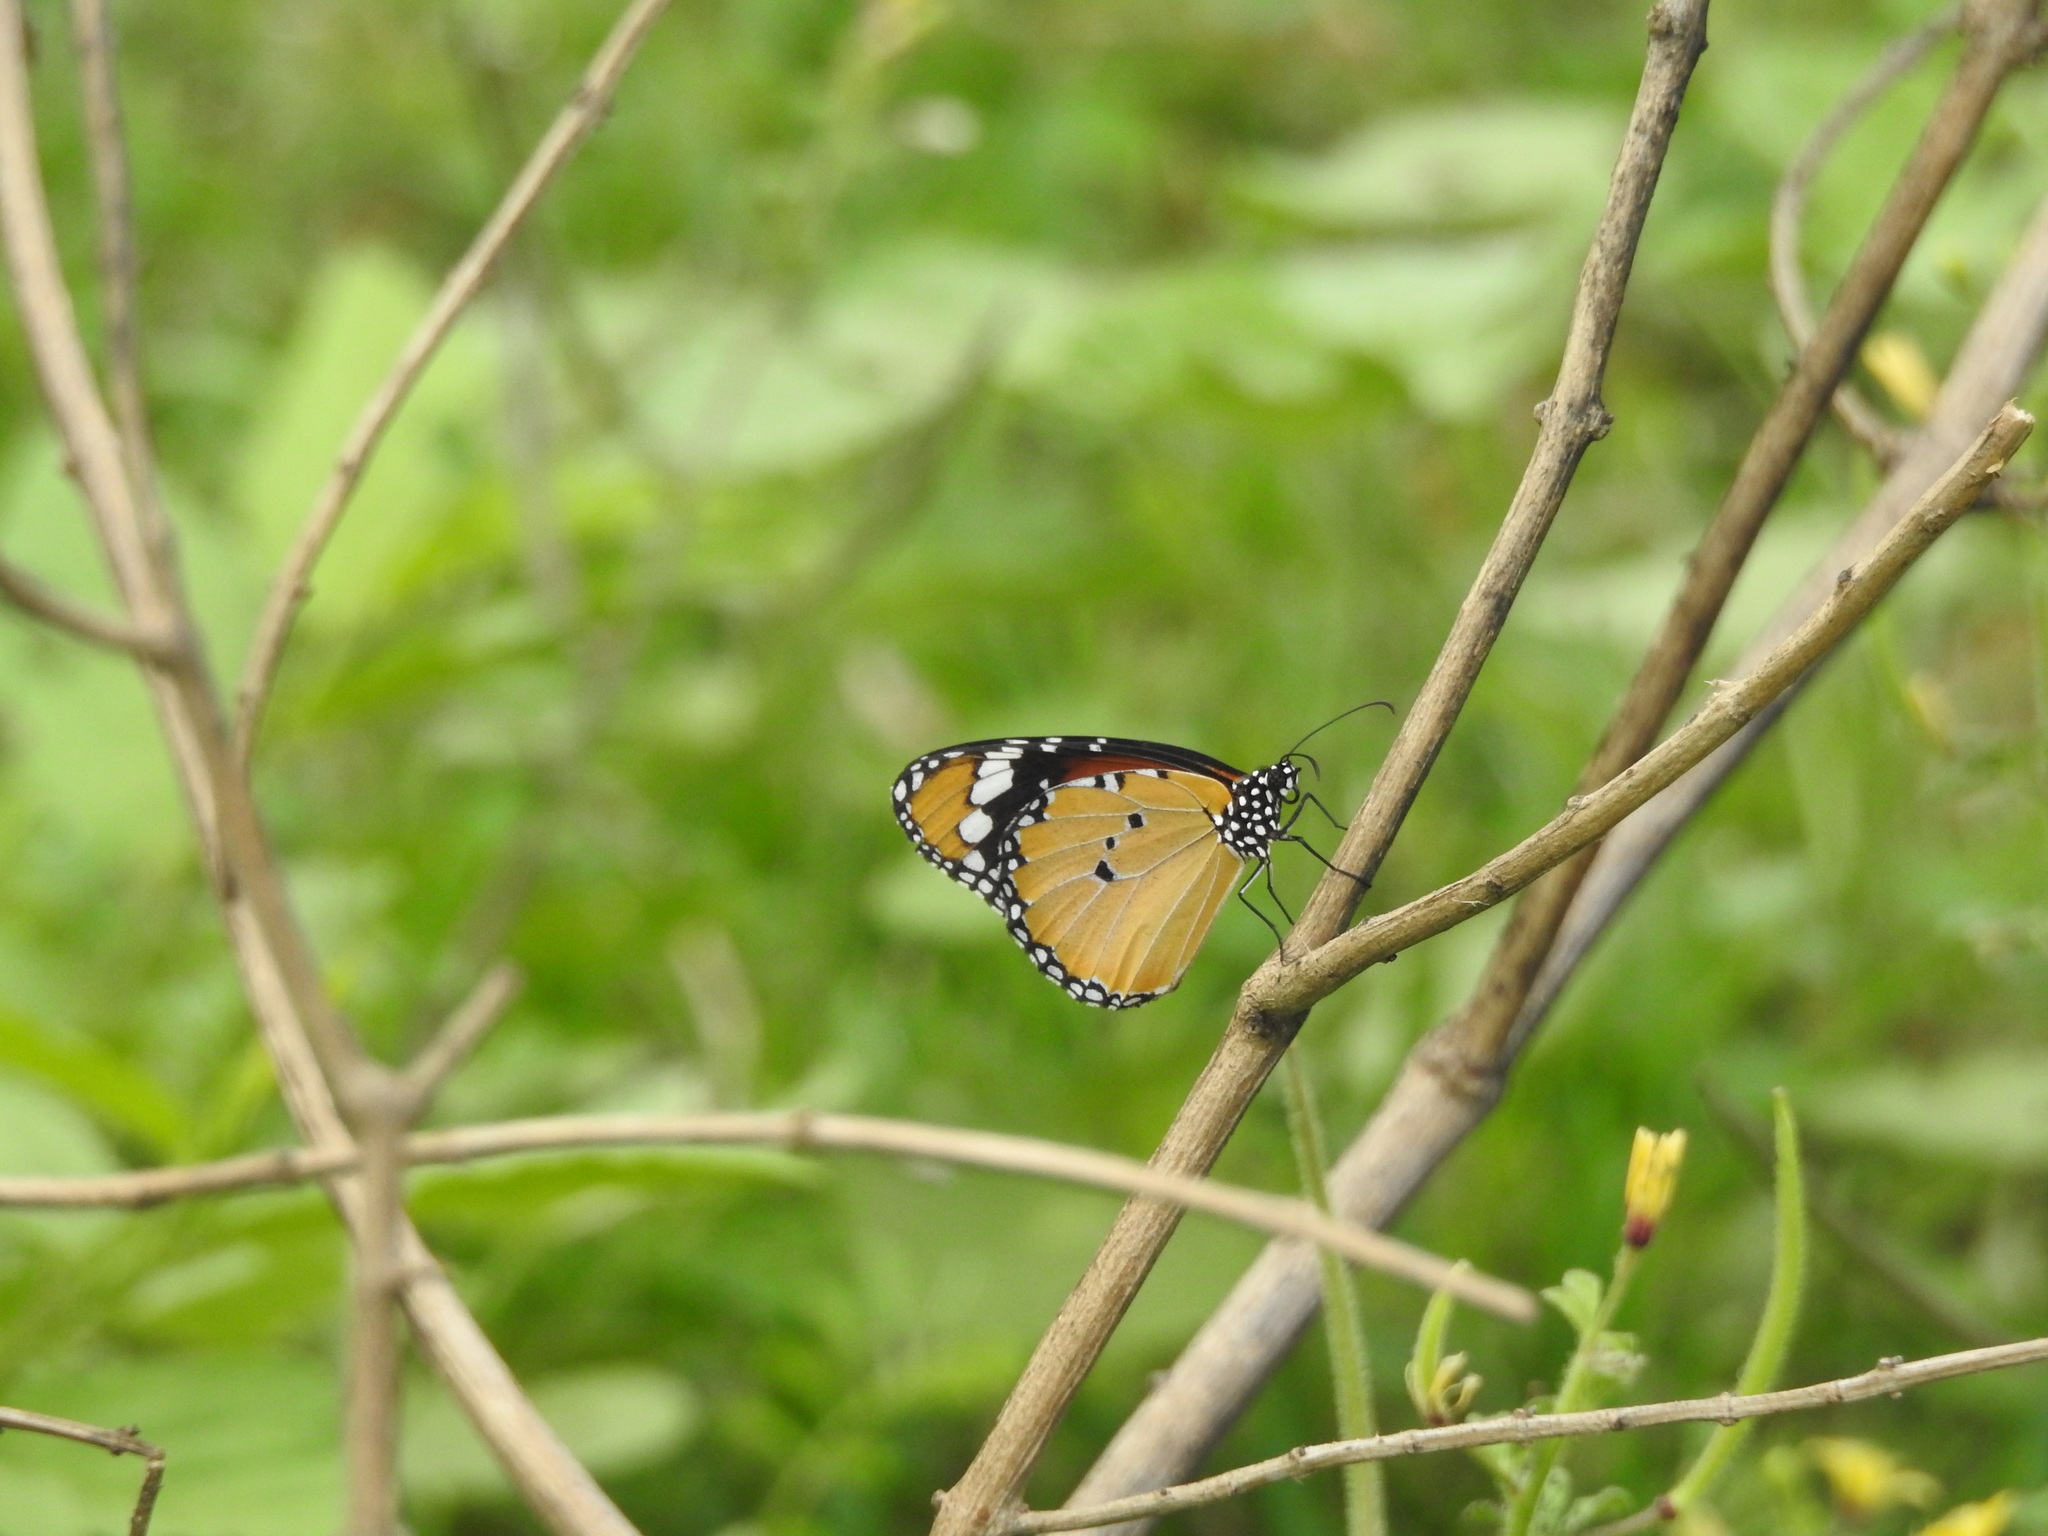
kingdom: Animalia
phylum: Arthropoda
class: Insecta
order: Lepidoptera
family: Nymphalidae
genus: Danaus
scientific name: Danaus chrysippus
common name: Plain tiger
